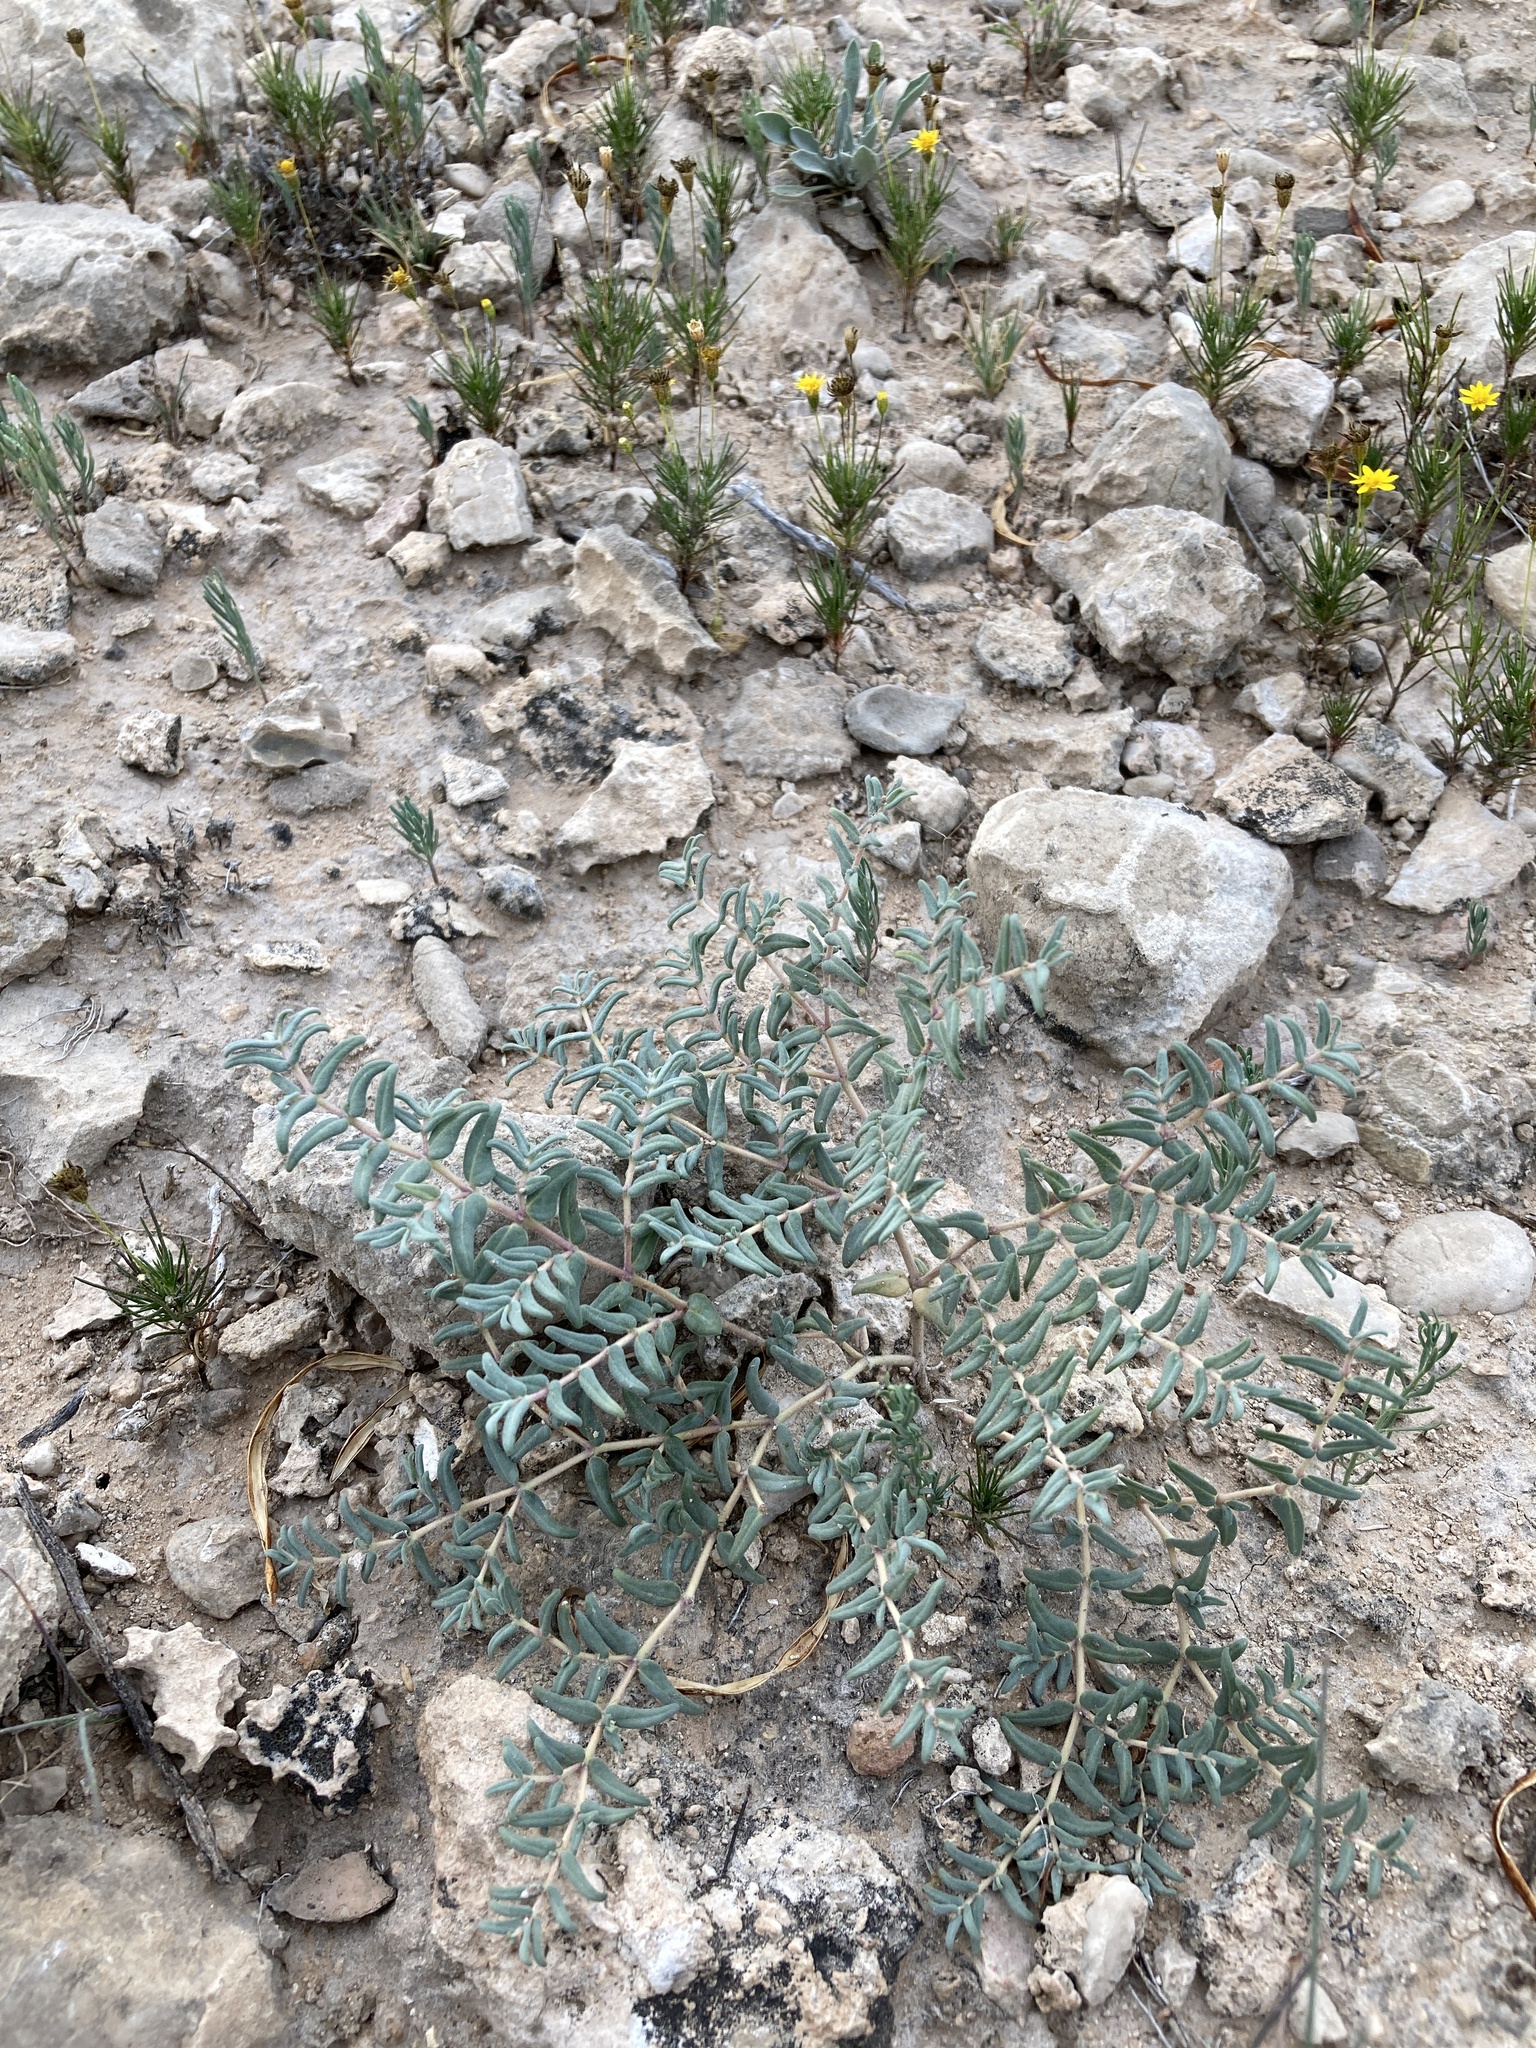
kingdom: Plantae
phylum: Tracheophyta
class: Magnoliopsida
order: Malpighiales
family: Euphorbiaceae
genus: Euphorbia
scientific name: Euphorbia lata
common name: Hoary euphorbia
